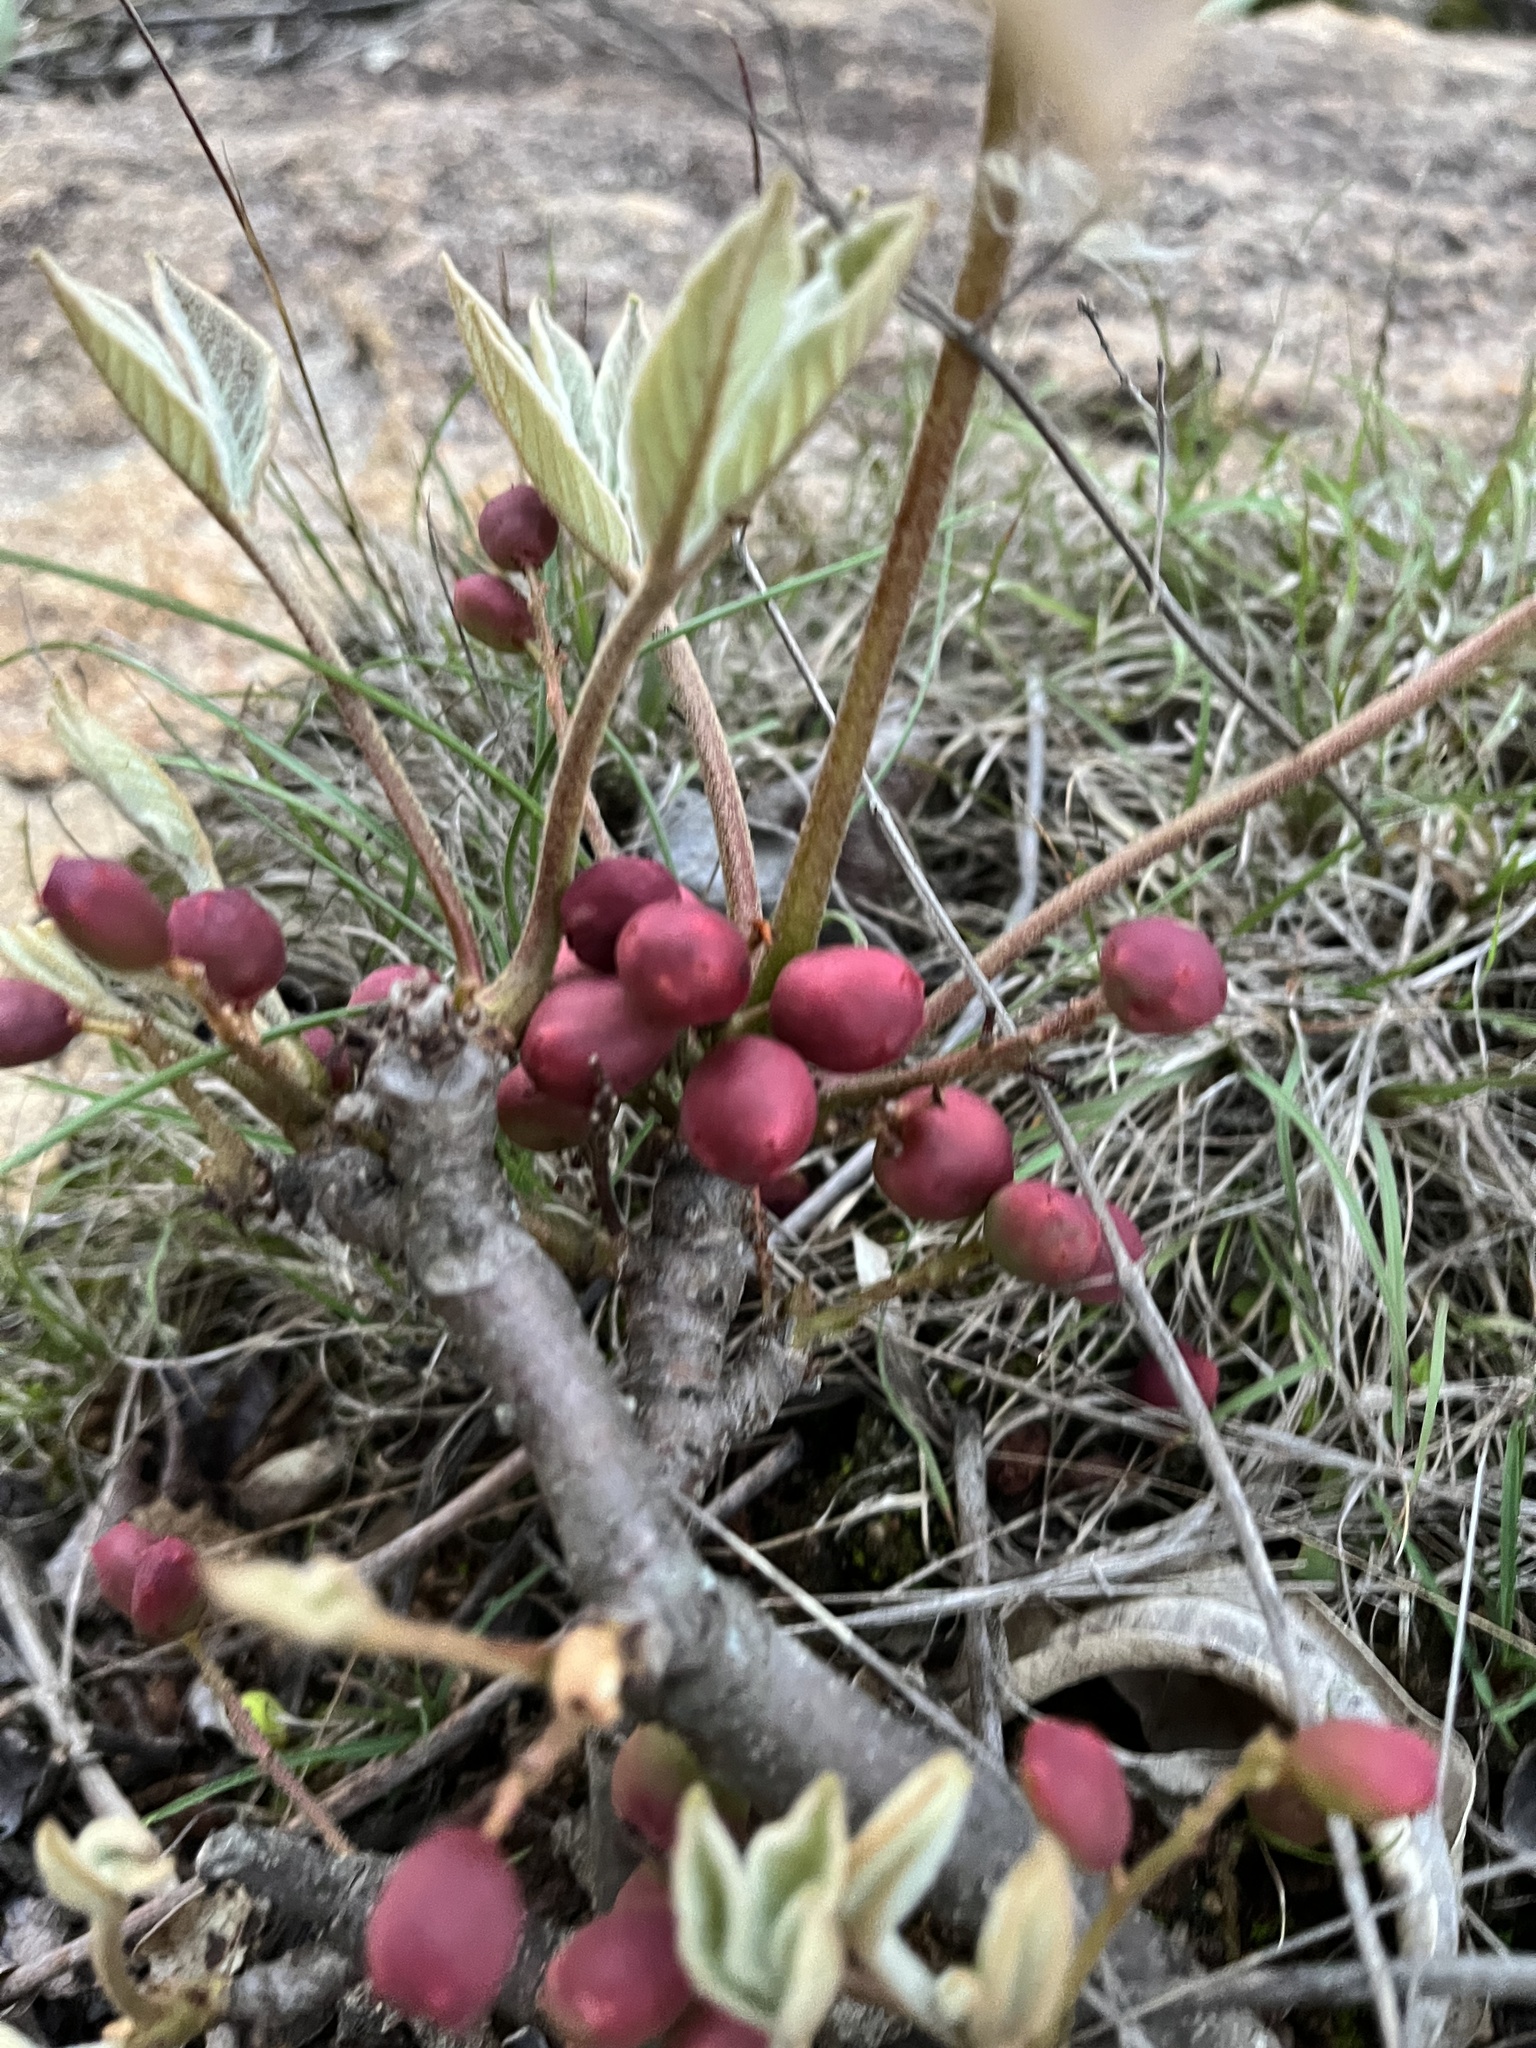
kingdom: Plantae
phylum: Tracheophyta
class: Magnoliopsida
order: Sapindales
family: Anacardiaceae
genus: Lannea
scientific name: Lannea edulis
